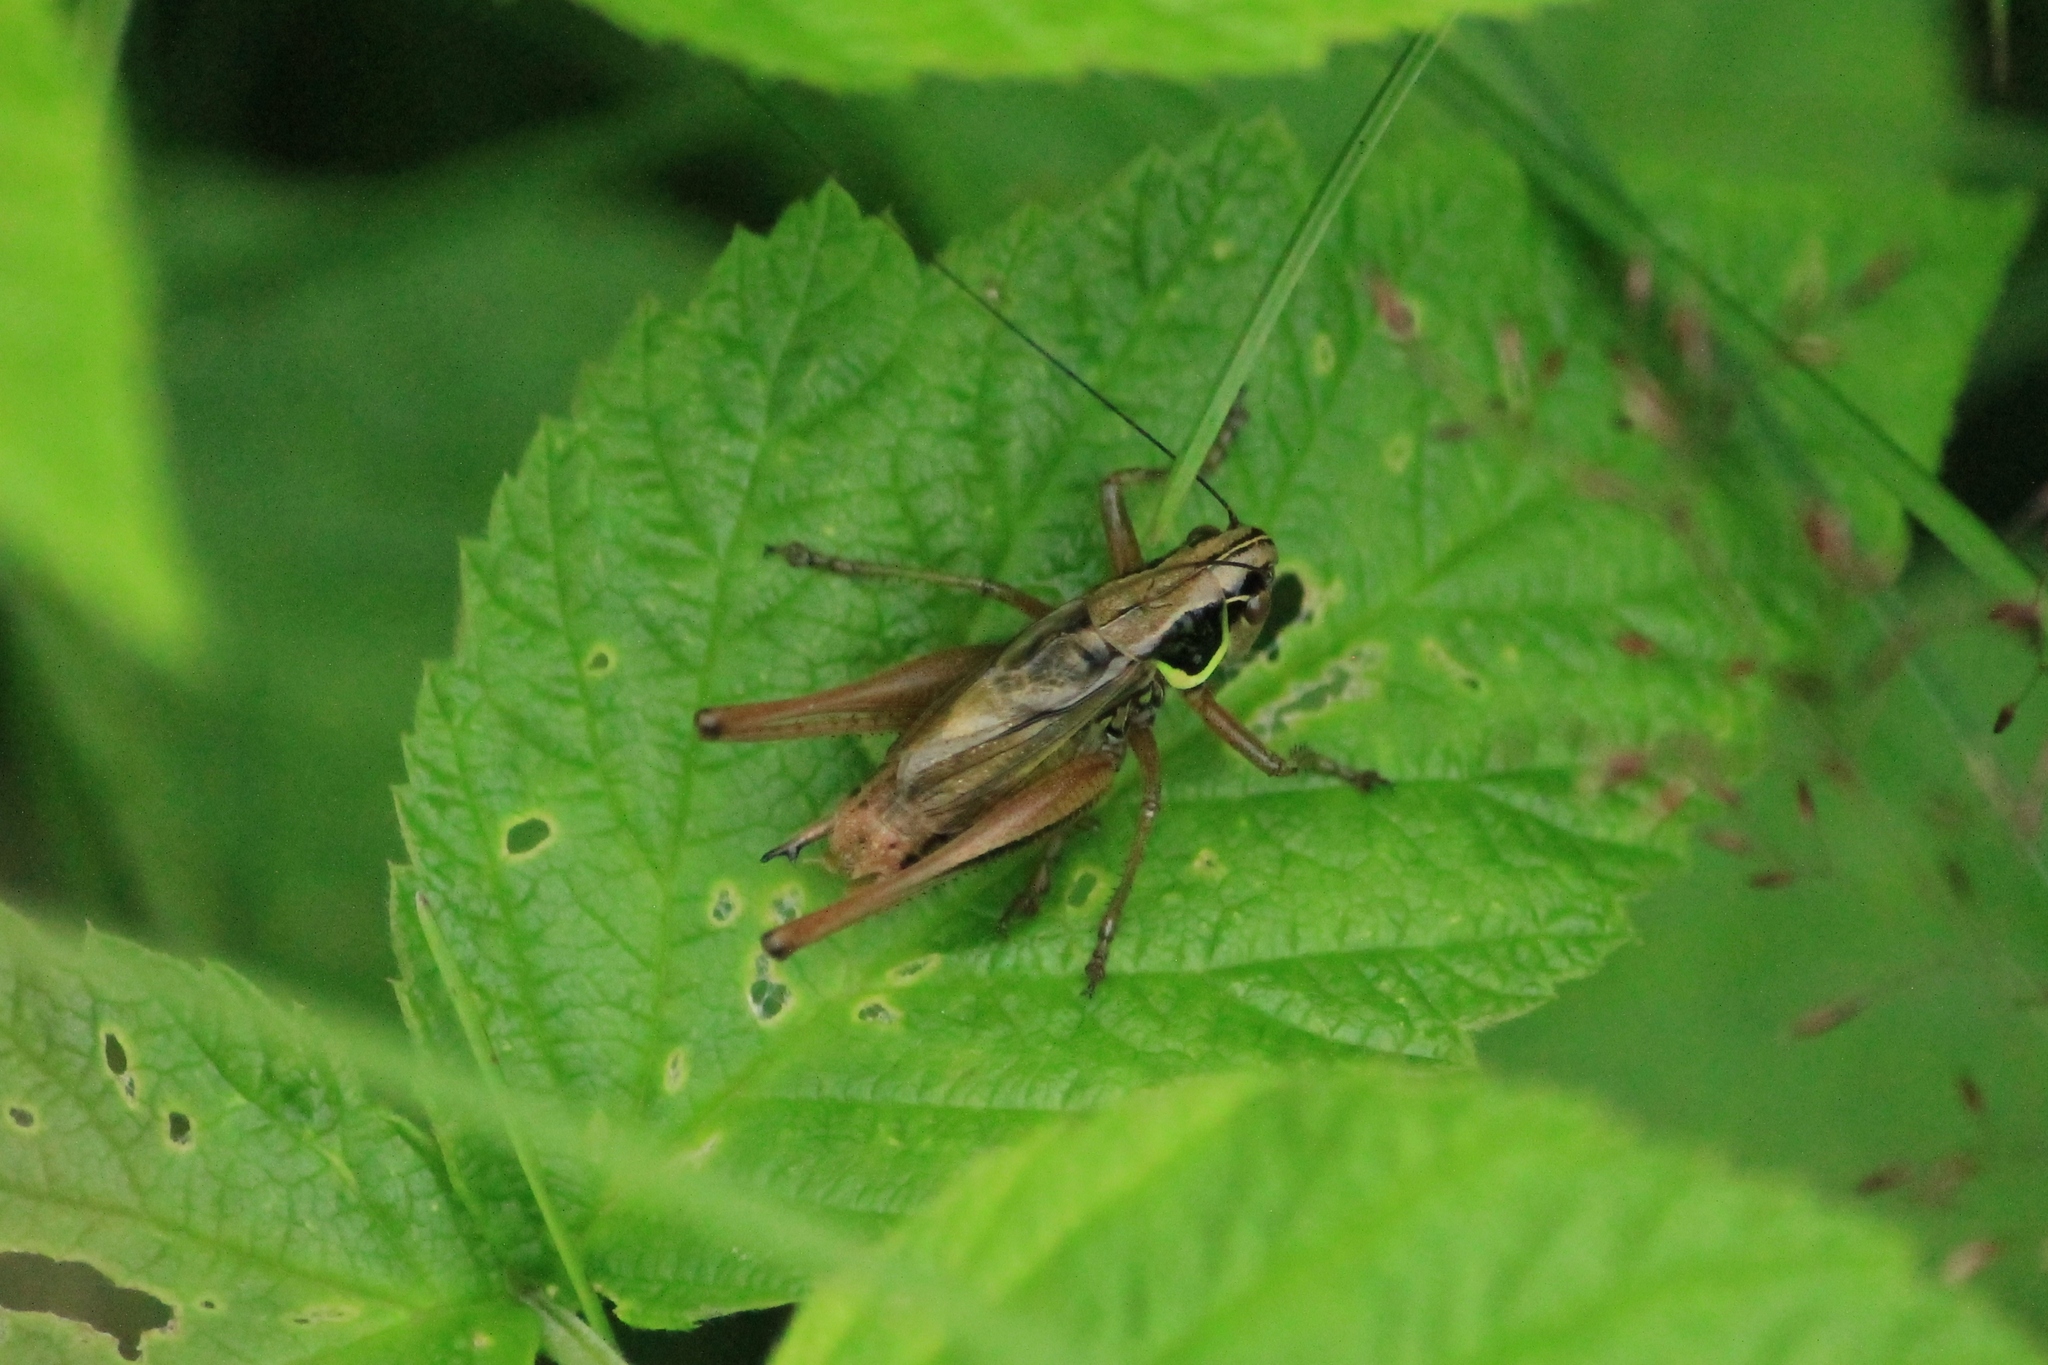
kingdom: Animalia
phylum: Arthropoda
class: Insecta
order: Orthoptera
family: Tettigoniidae
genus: Roeseliana
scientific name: Roeseliana roeselii
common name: Roesel's bush cricket
